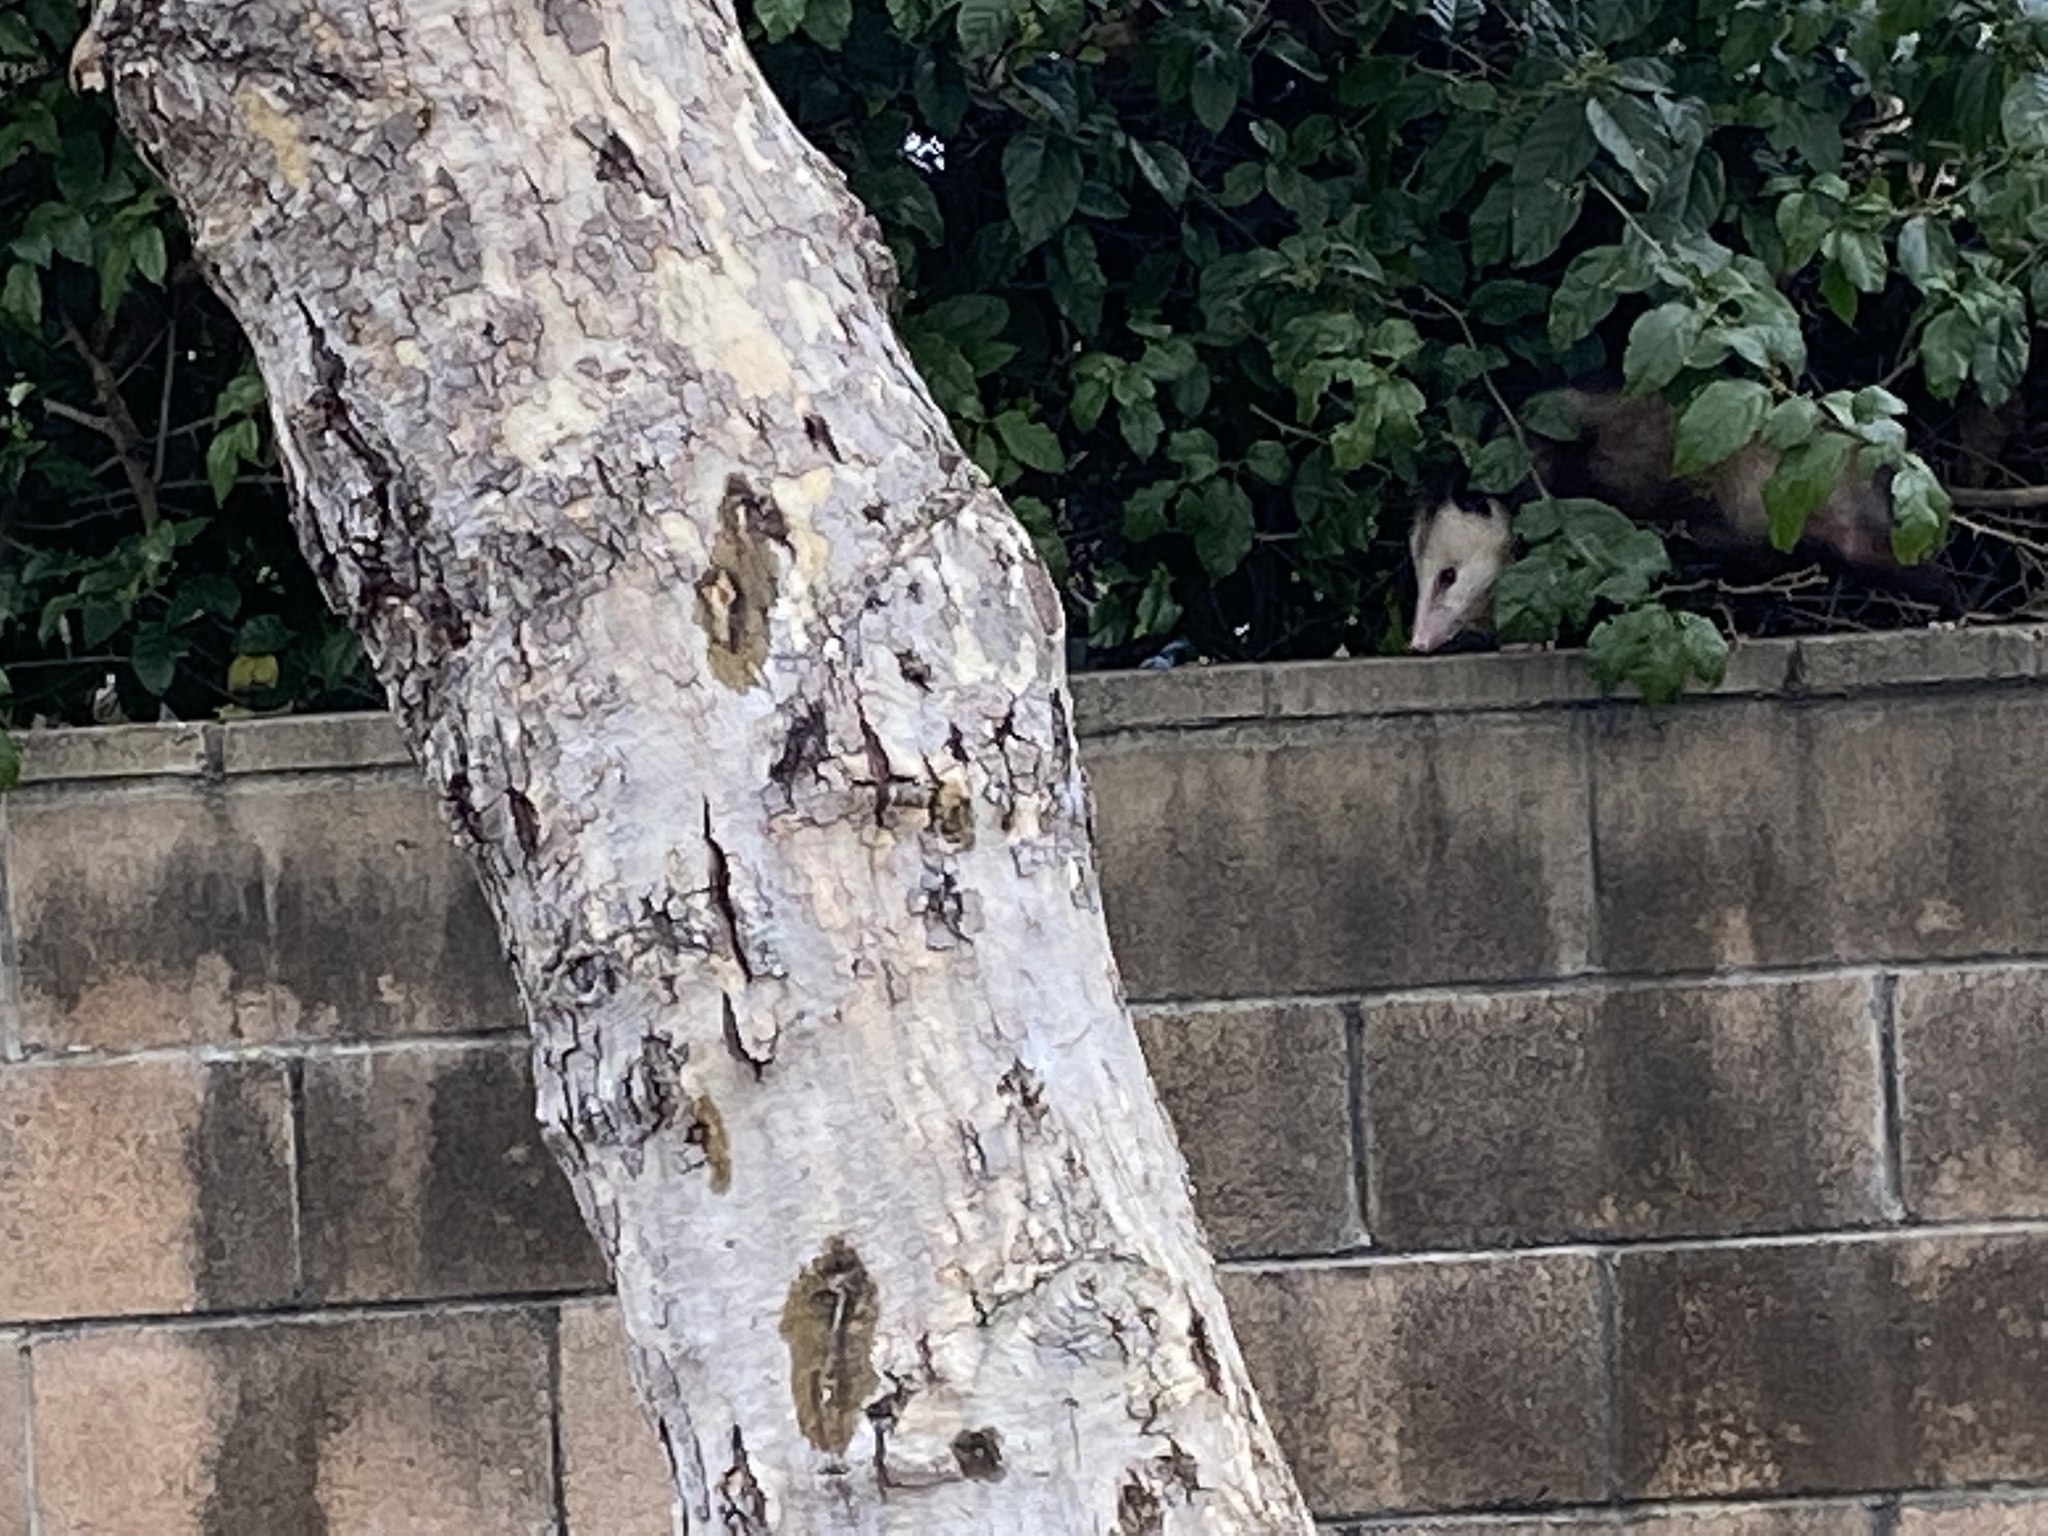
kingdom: Animalia
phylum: Chordata
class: Mammalia
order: Didelphimorphia
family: Didelphidae
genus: Didelphis
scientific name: Didelphis virginiana
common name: Virginia opossum
